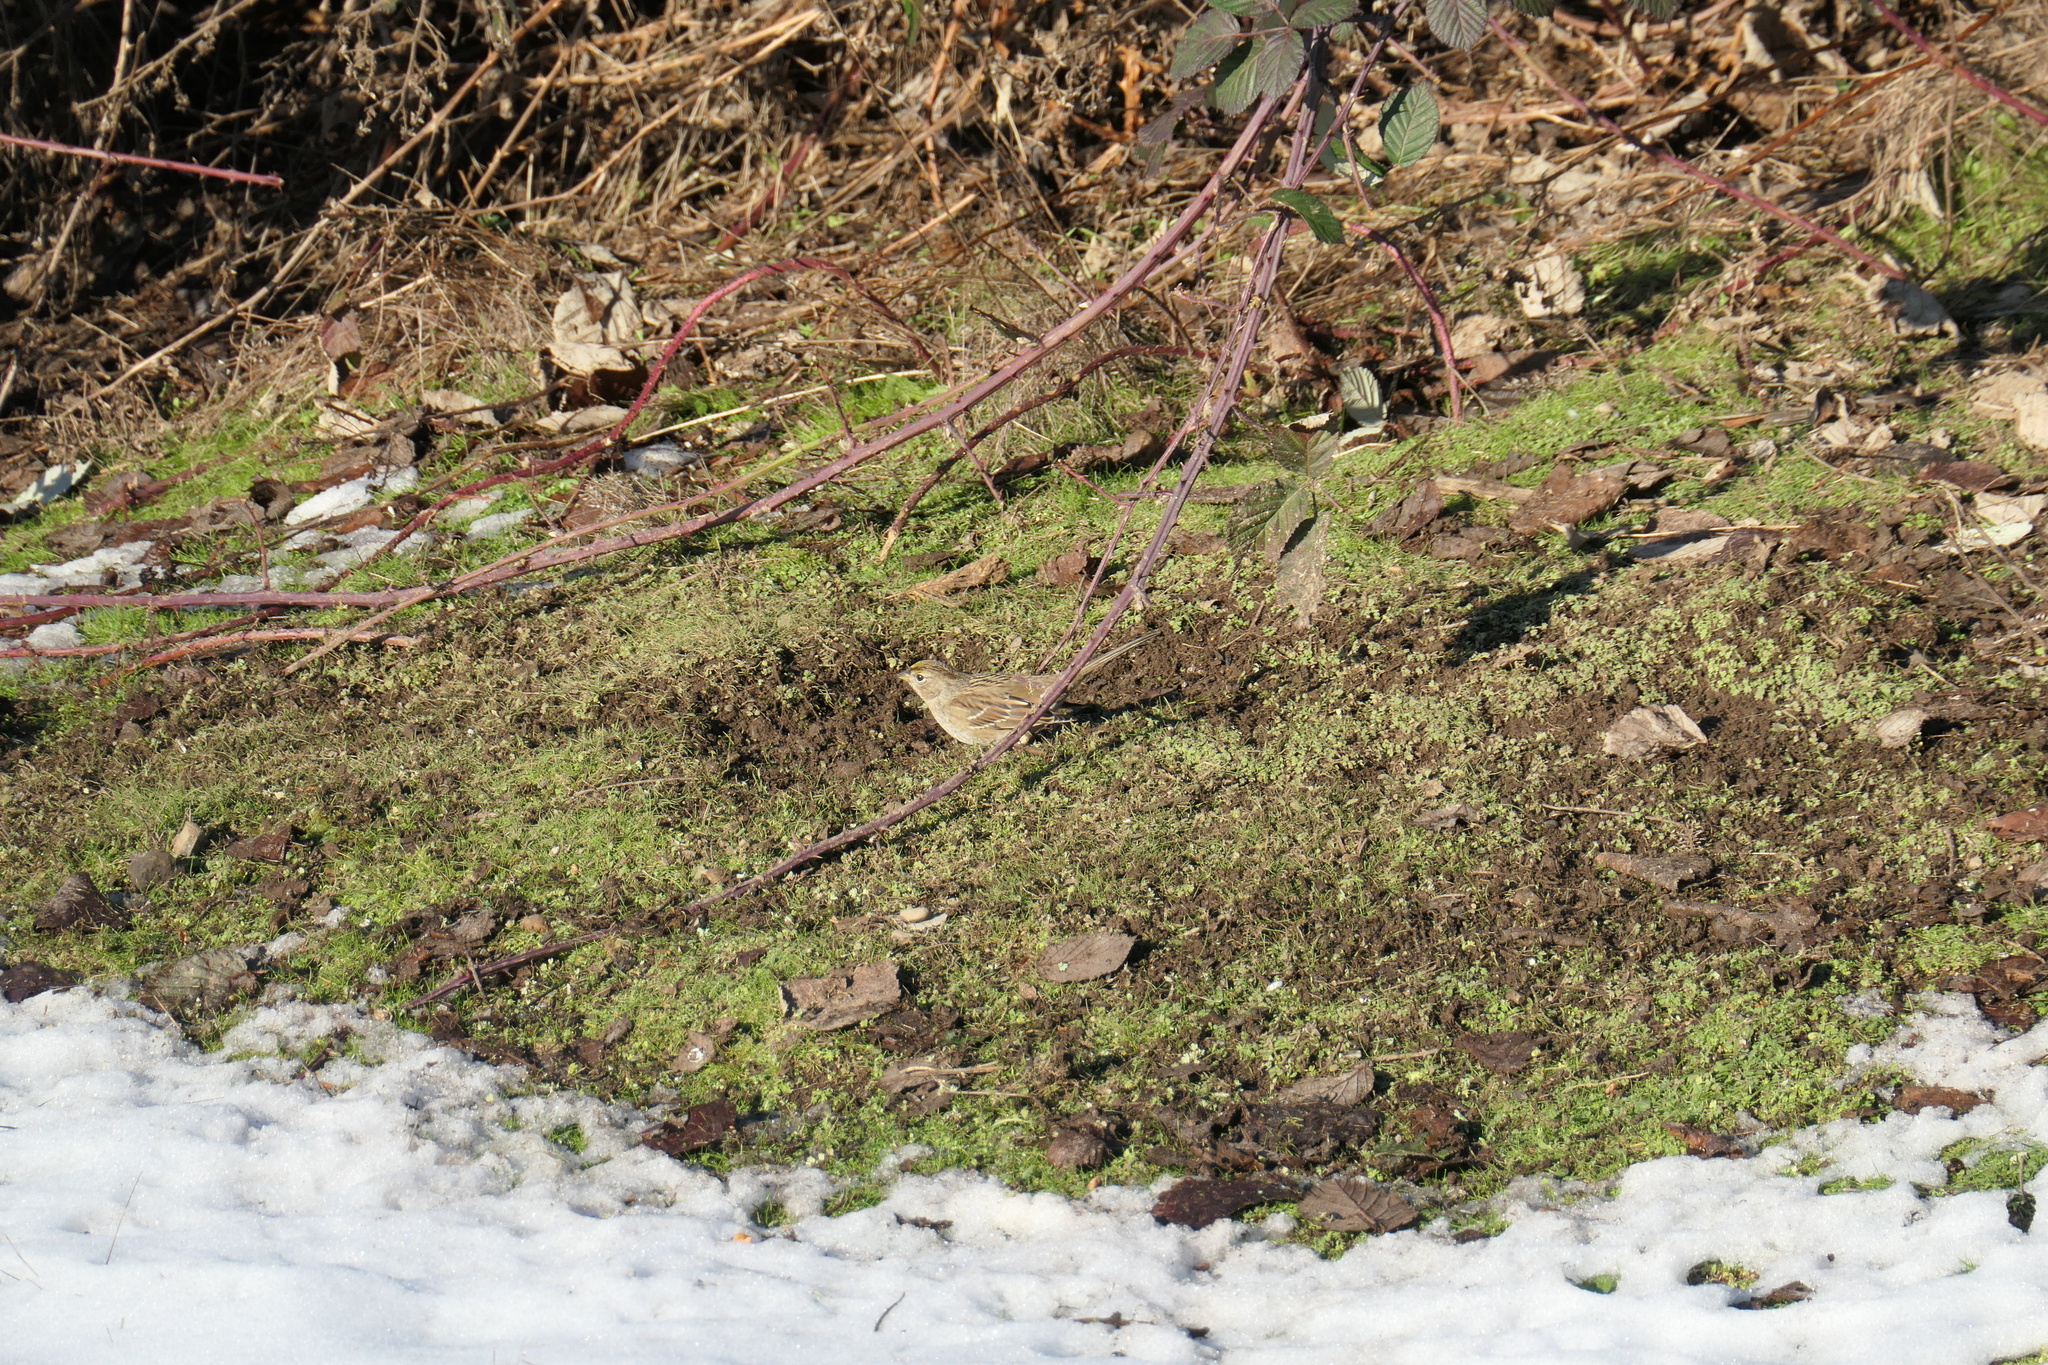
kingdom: Animalia
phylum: Chordata
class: Aves
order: Passeriformes
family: Passerellidae
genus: Zonotrichia
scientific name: Zonotrichia atricapilla
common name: Golden-crowned sparrow
